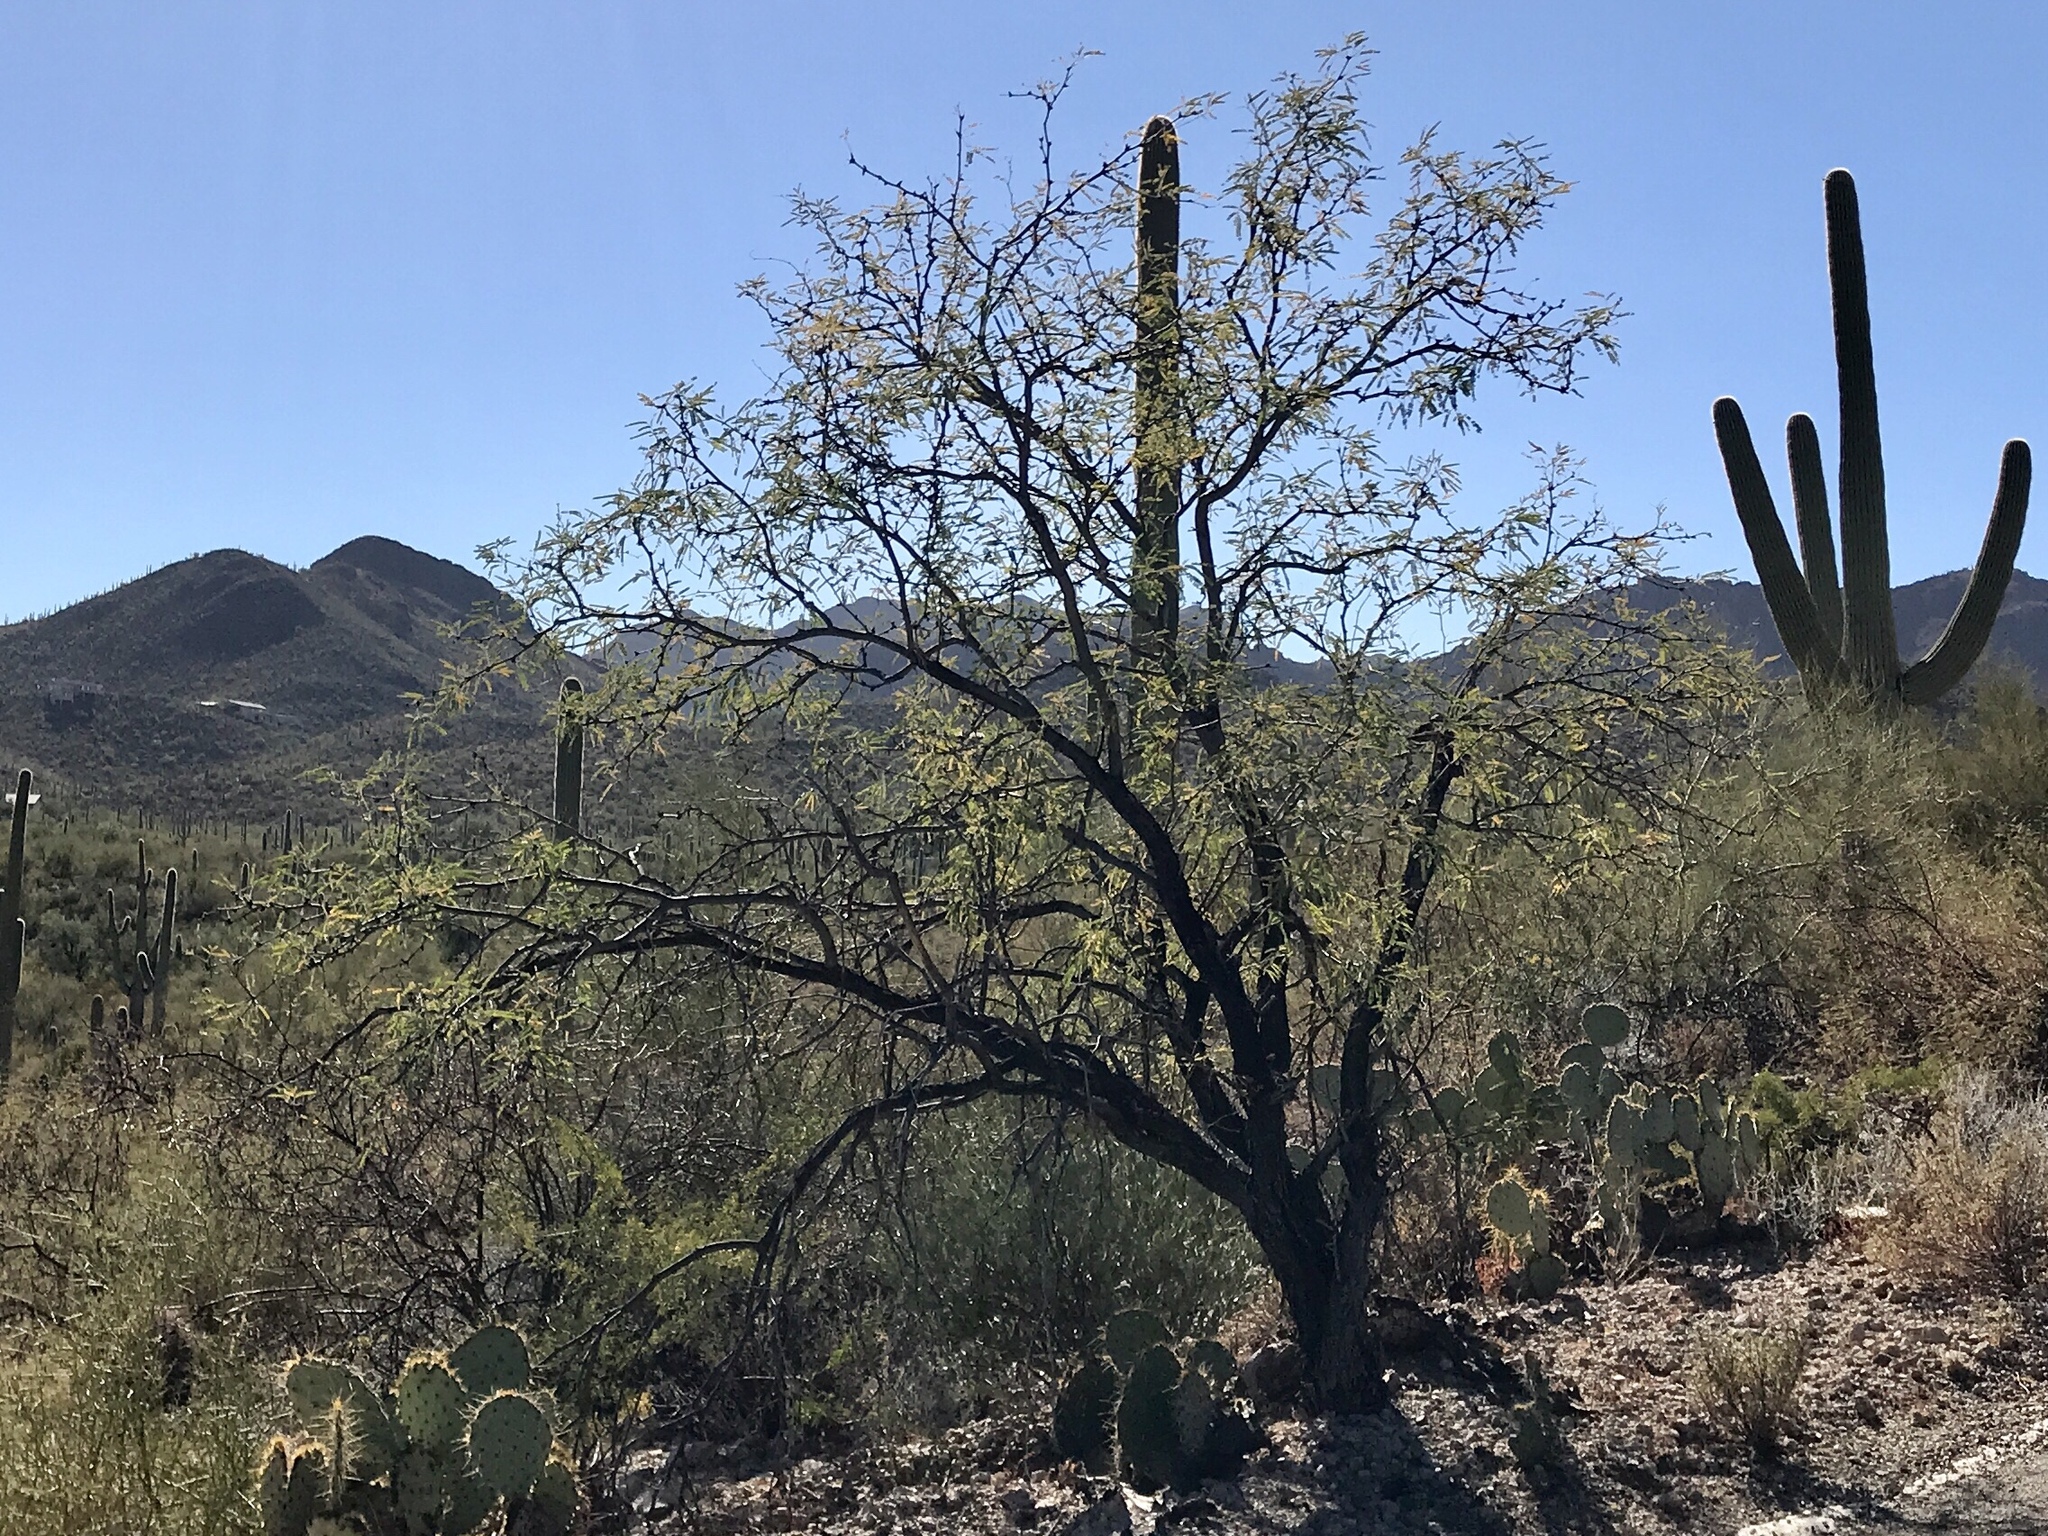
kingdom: Plantae
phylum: Tracheophyta
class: Magnoliopsida
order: Fabales
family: Fabaceae
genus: Prosopis
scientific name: Prosopis velutina
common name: Velvet mesquite
